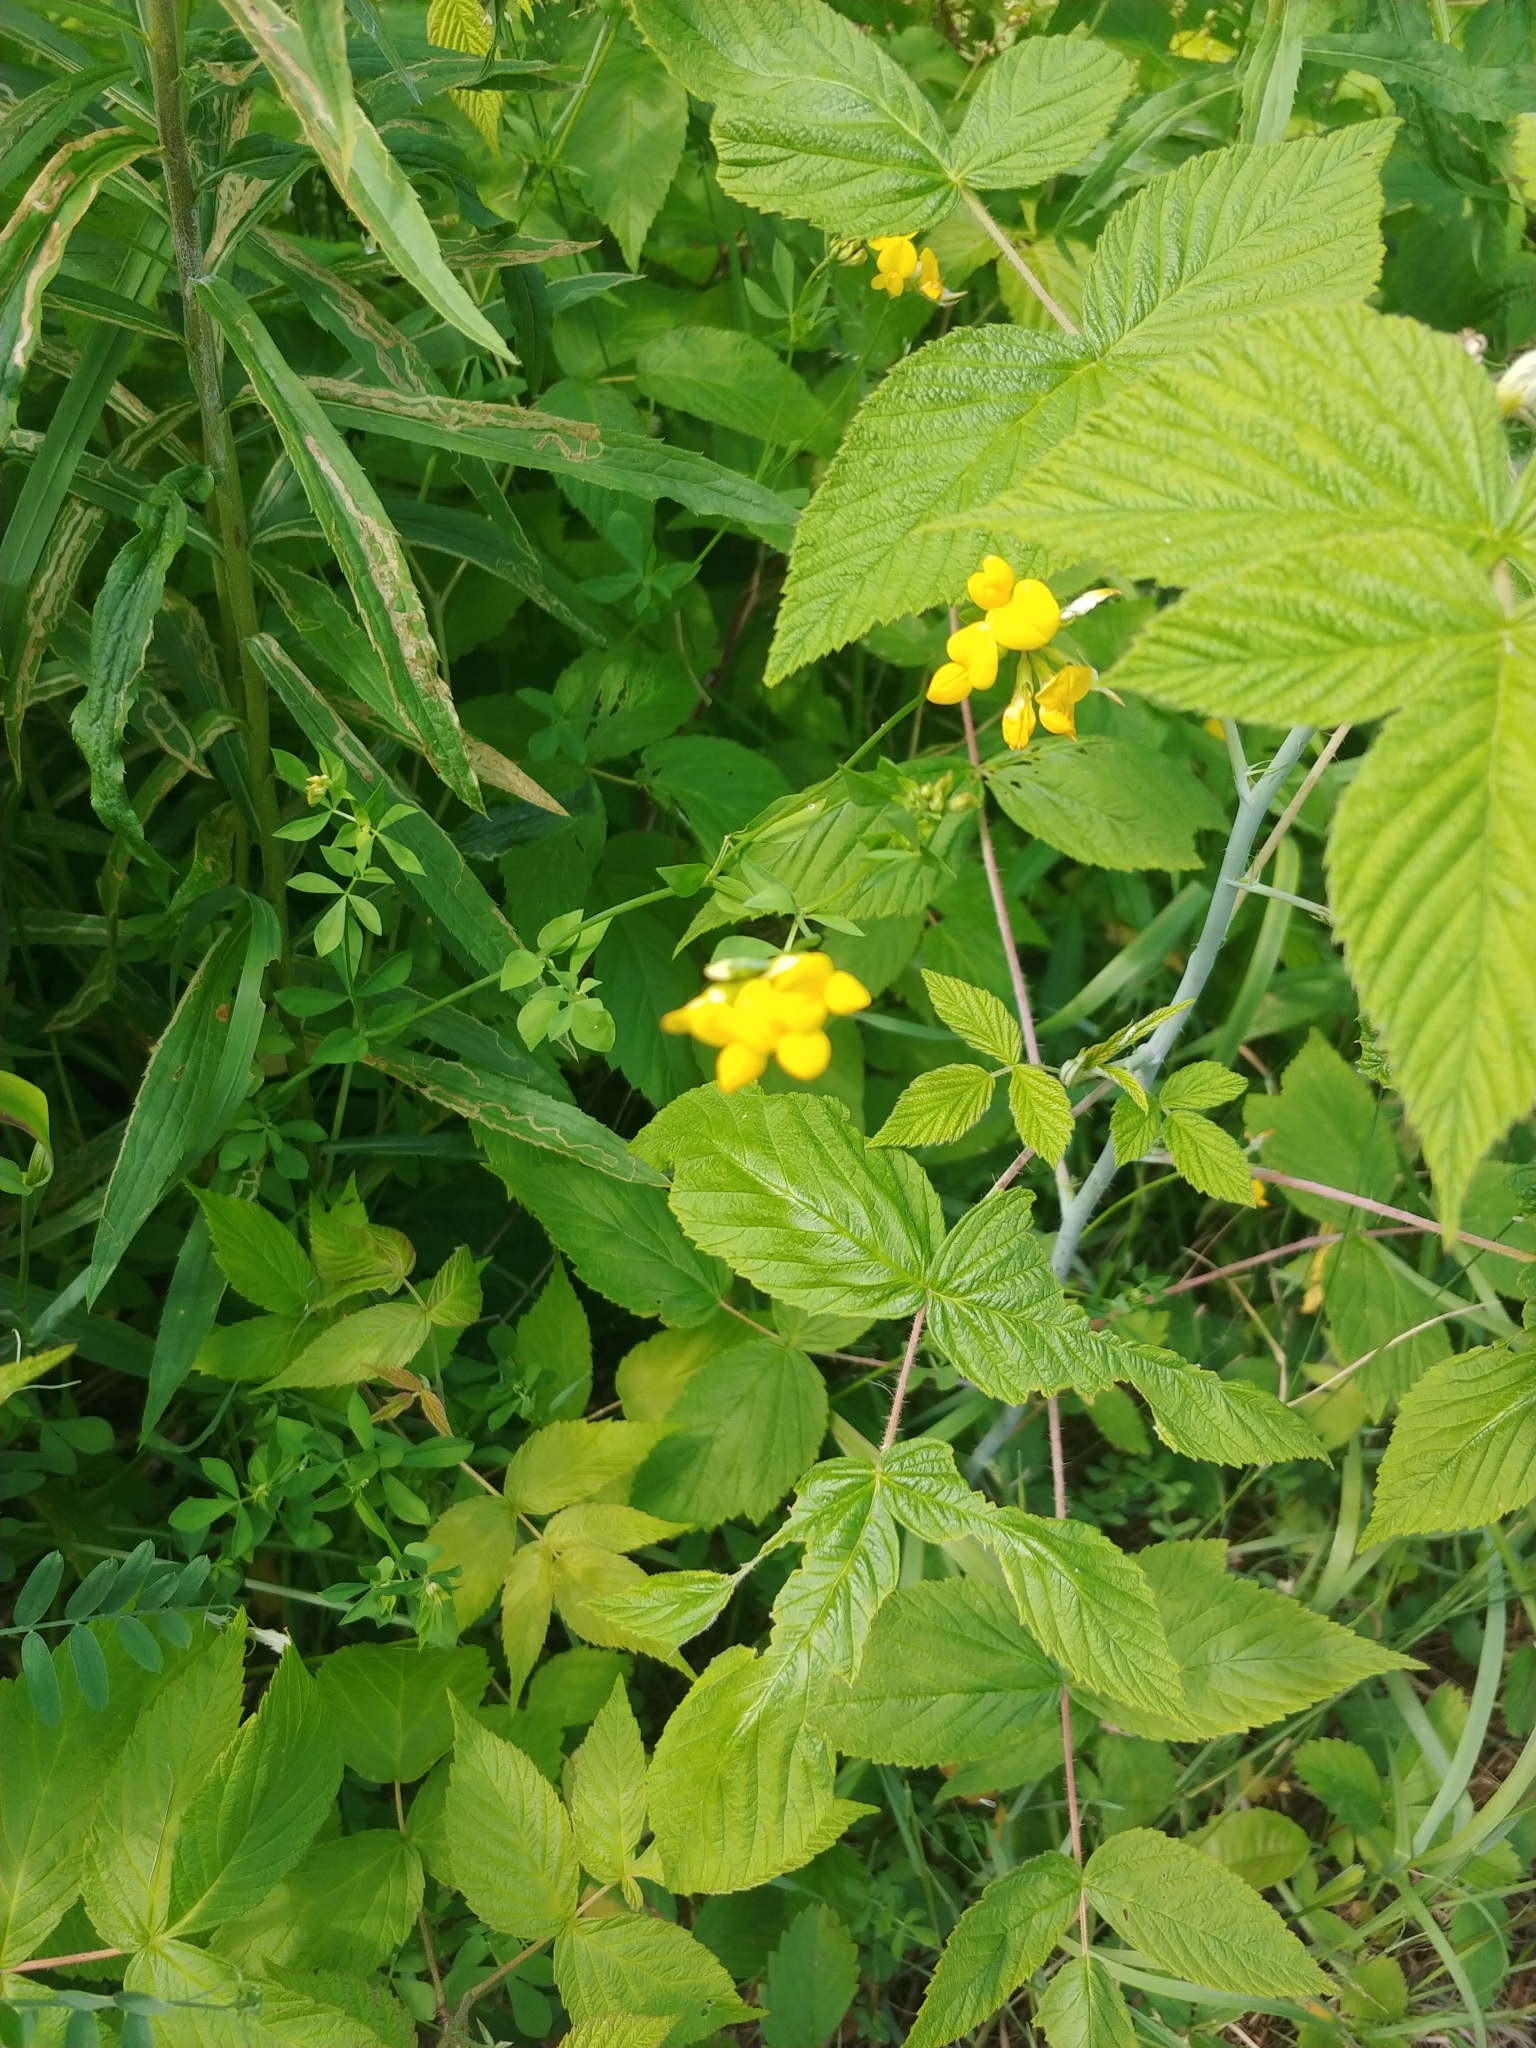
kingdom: Plantae
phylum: Tracheophyta
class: Magnoliopsida
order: Fabales
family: Fabaceae
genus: Lotus
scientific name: Lotus corniculatus
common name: Common bird's-foot-trefoil
